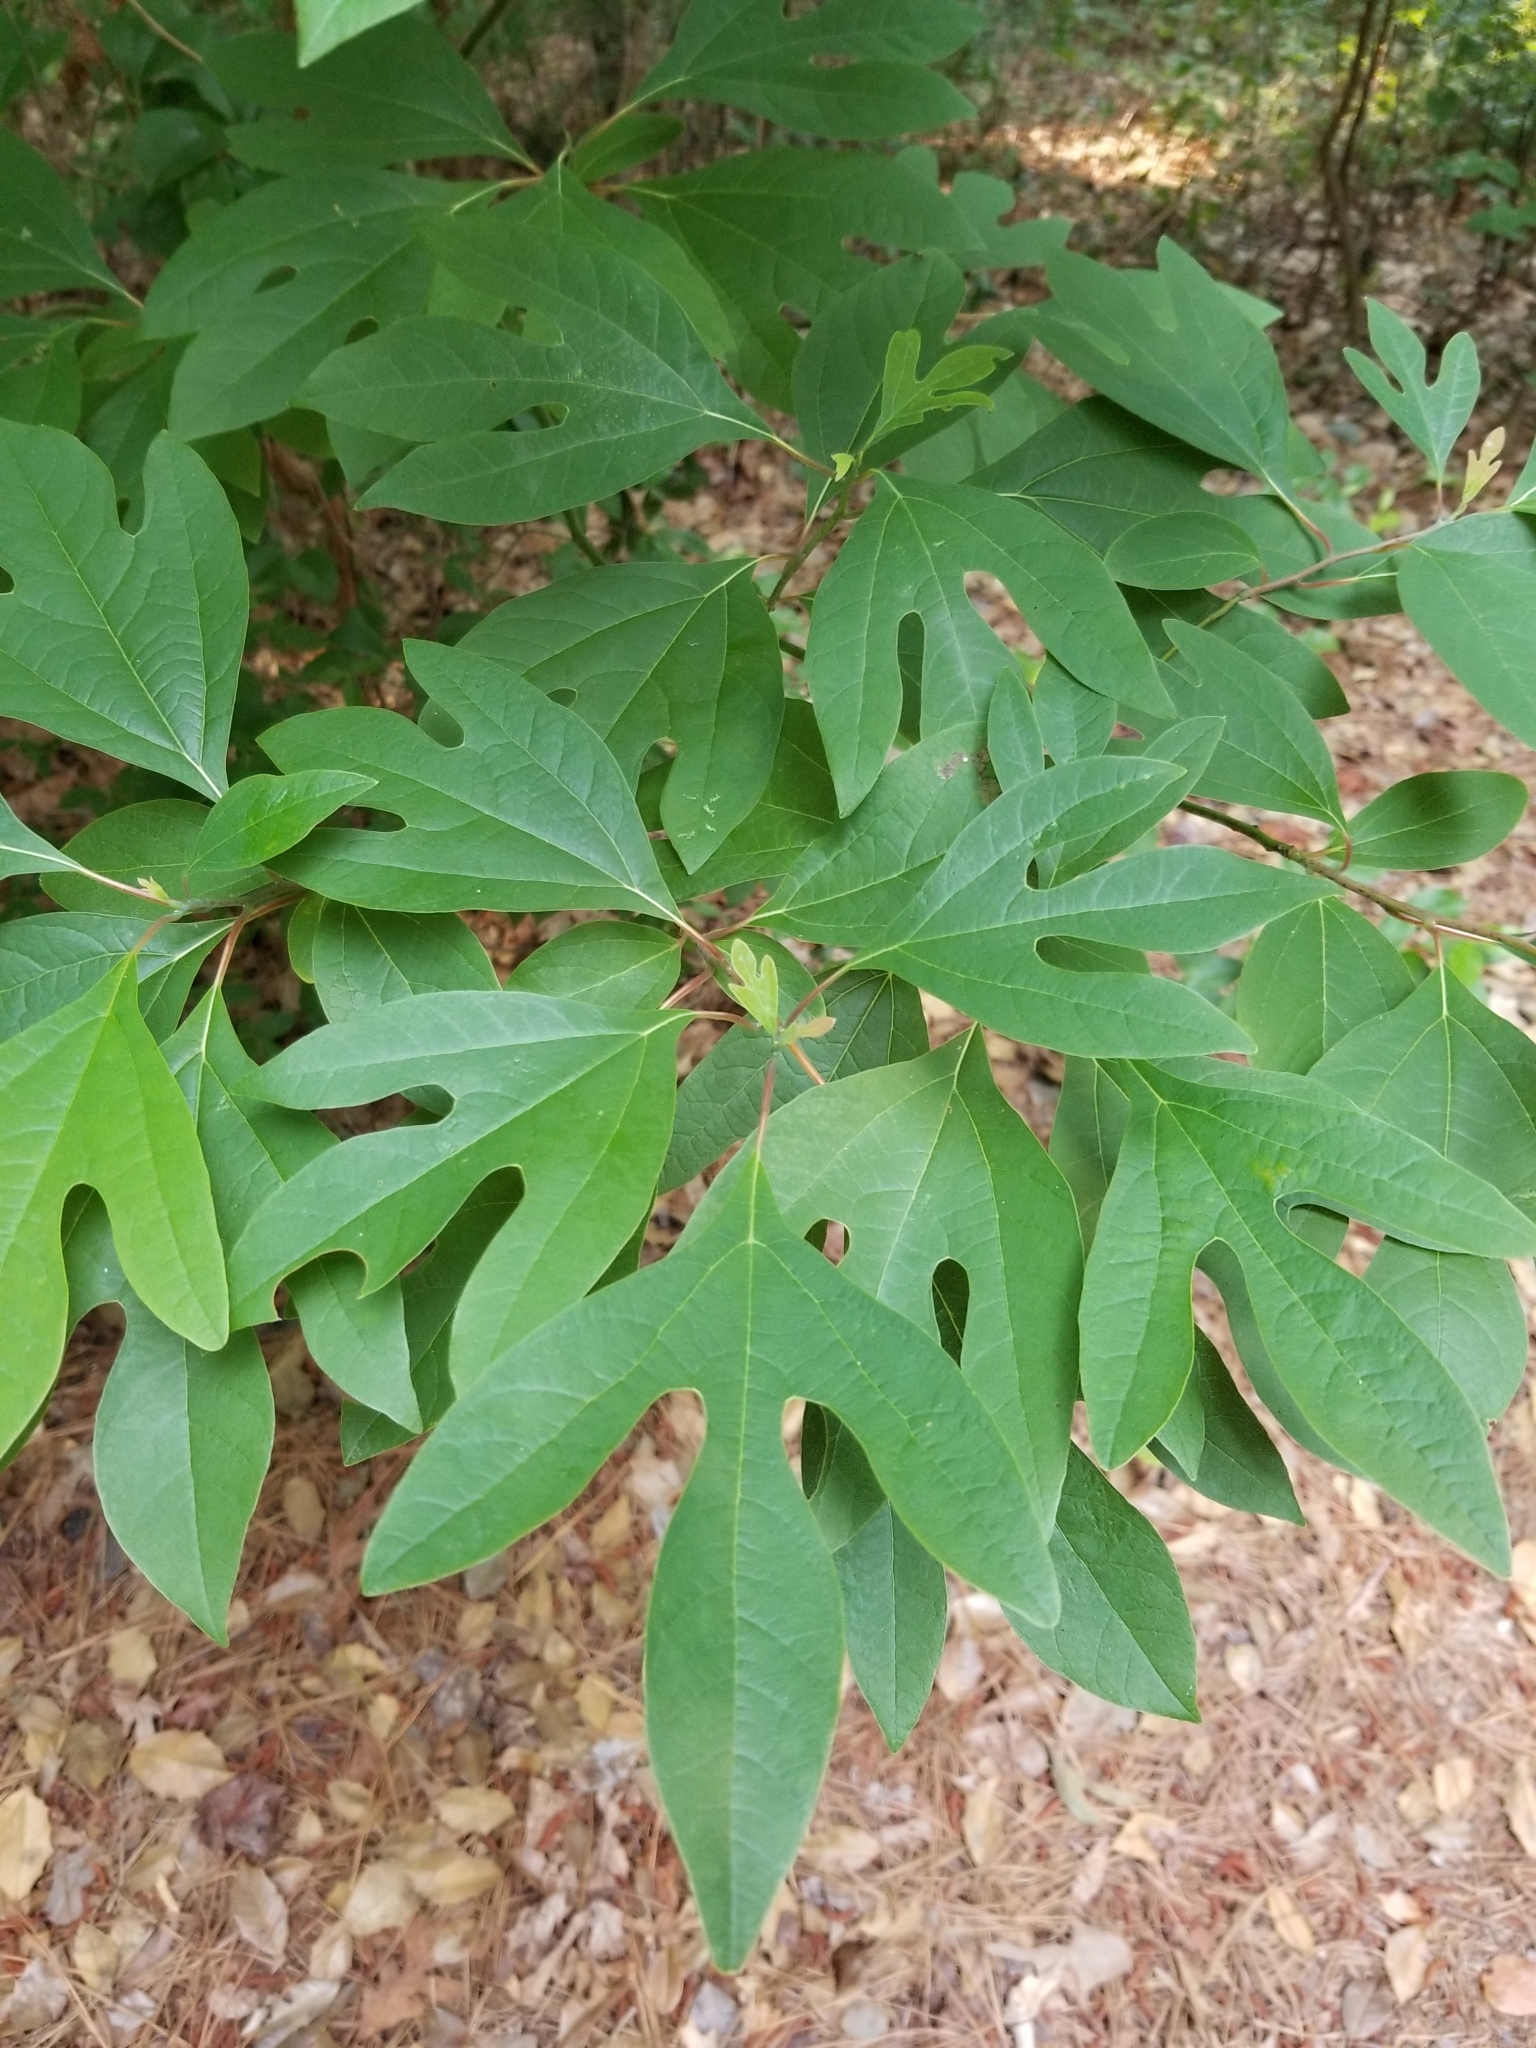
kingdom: Plantae
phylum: Tracheophyta
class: Magnoliopsida
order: Laurales
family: Lauraceae
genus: Sassafras
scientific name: Sassafras albidum
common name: Sassafras
